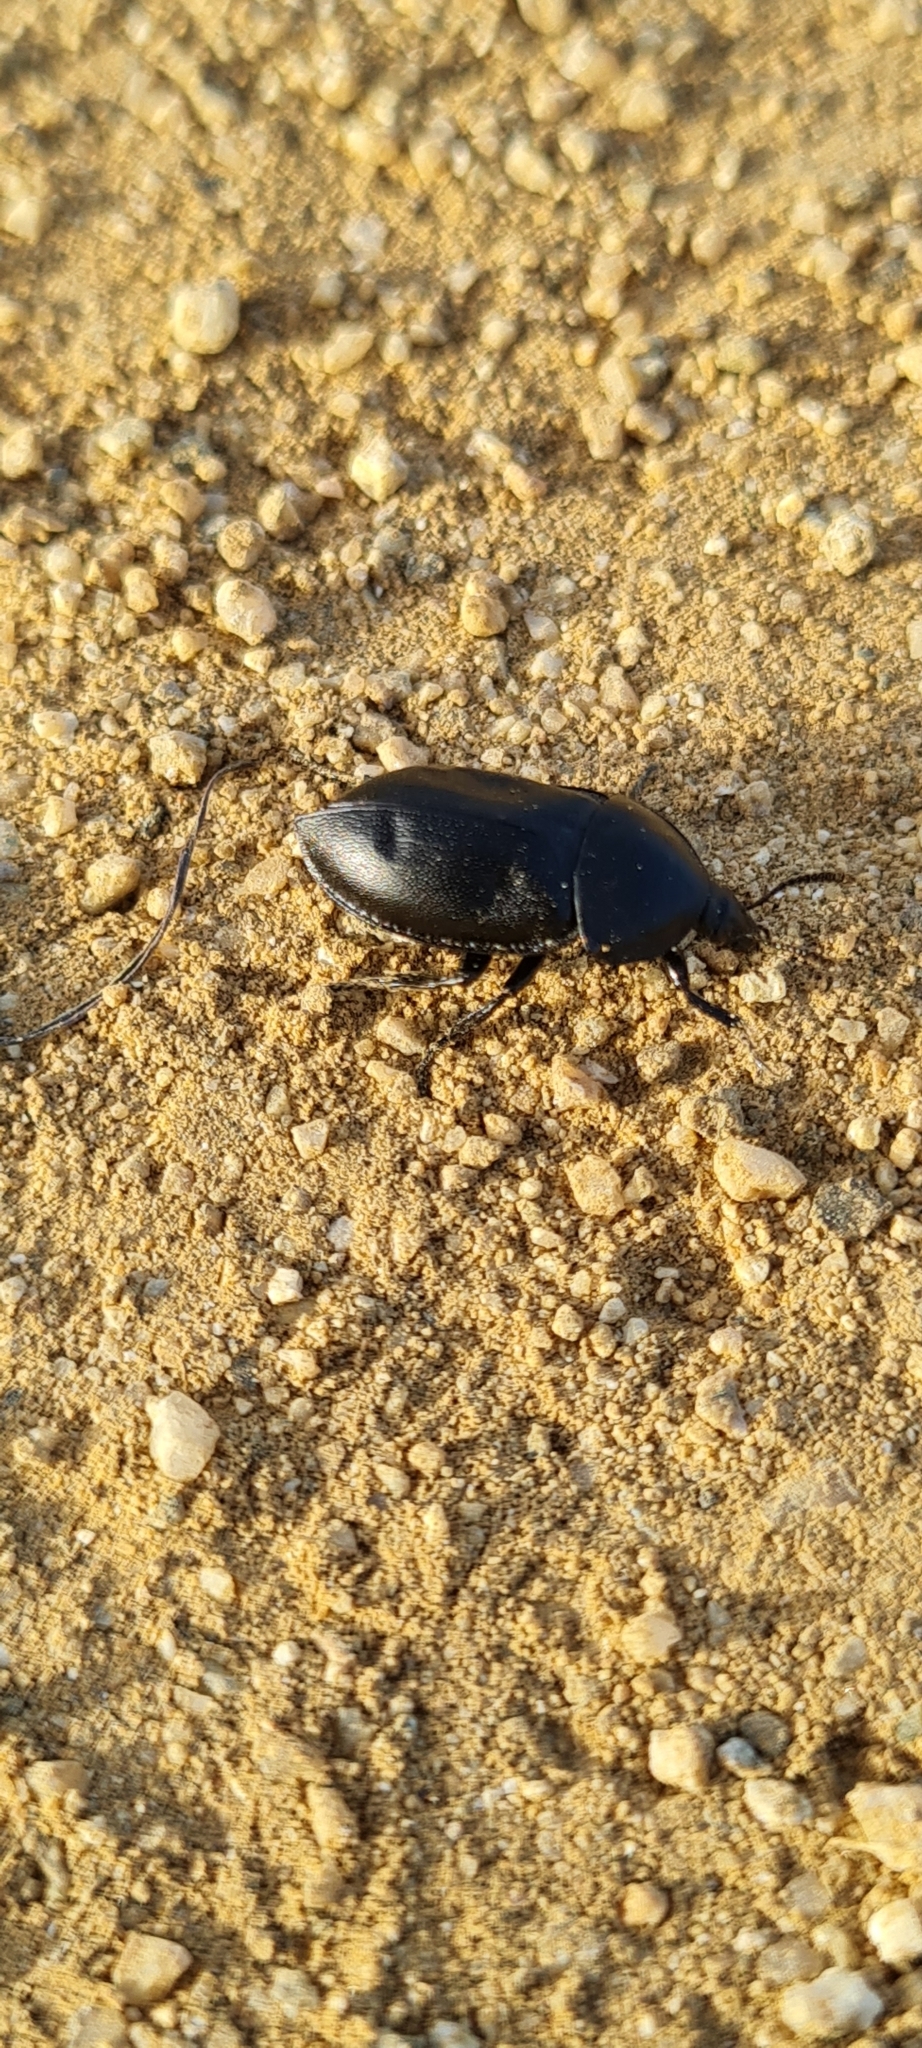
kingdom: Animalia
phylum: Arthropoda
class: Insecta
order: Coleoptera
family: Staphylinidae
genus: Silpha
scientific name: Silpha laevigata
